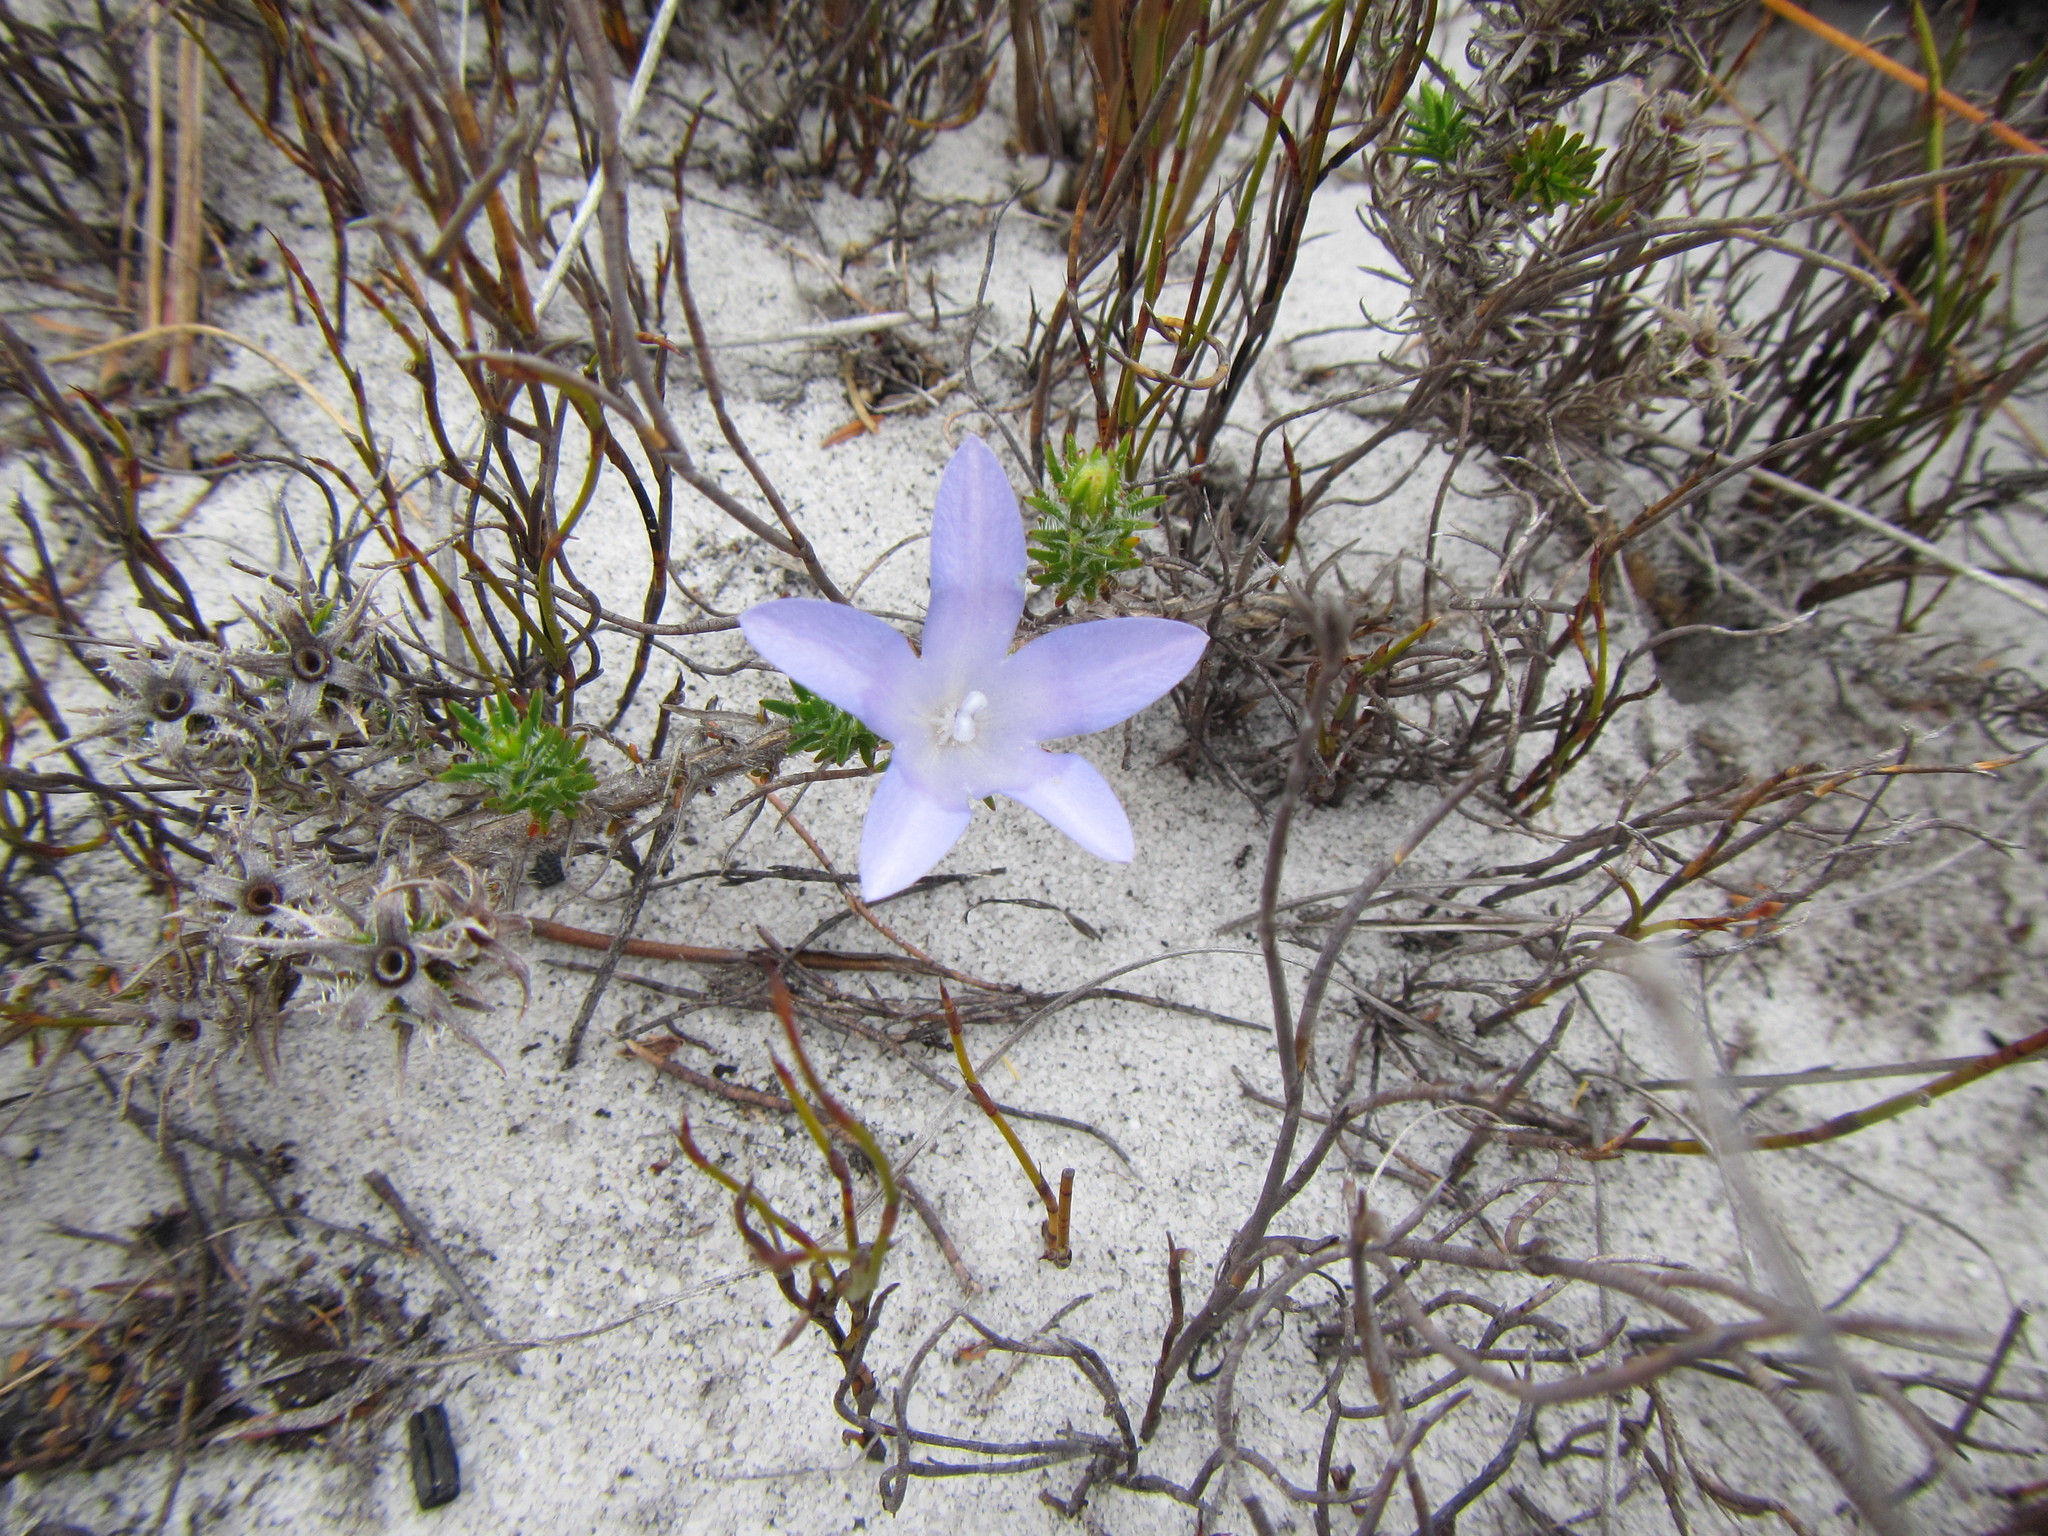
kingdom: Plantae
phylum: Tracheophyta
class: Magnoliopsida
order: Asterales
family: Campanulaceae
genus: Roella
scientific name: Roella prostrata
